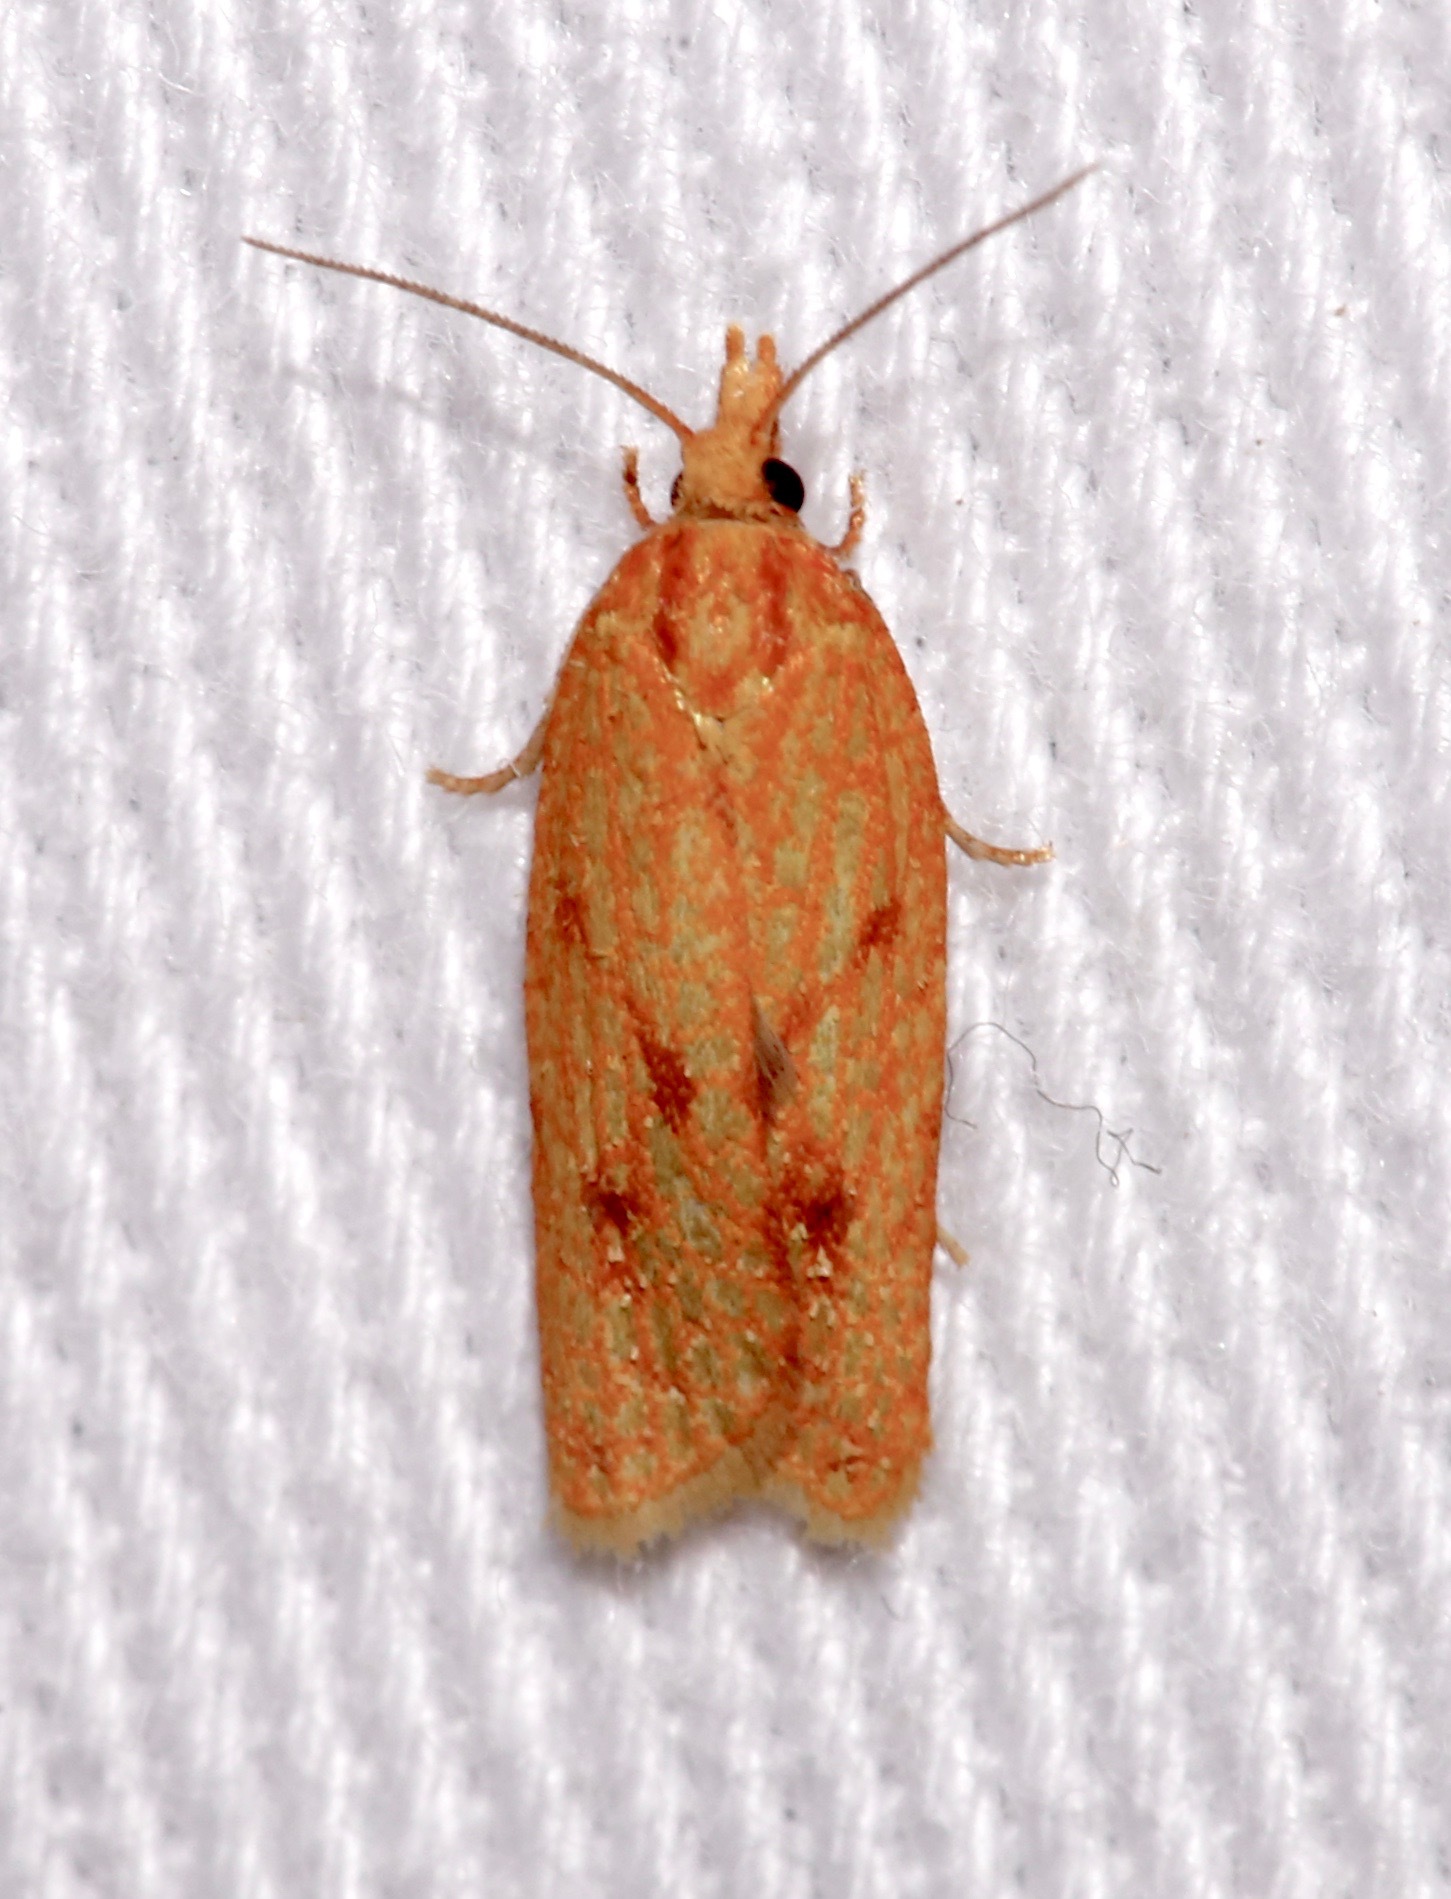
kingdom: Animalia
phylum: Arthropoda
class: Insecta
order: Lepidoptera
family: Tortricidae
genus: Sparganothis
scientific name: Sparganothis sulfureana
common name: Sparganothis fruitworm moth
